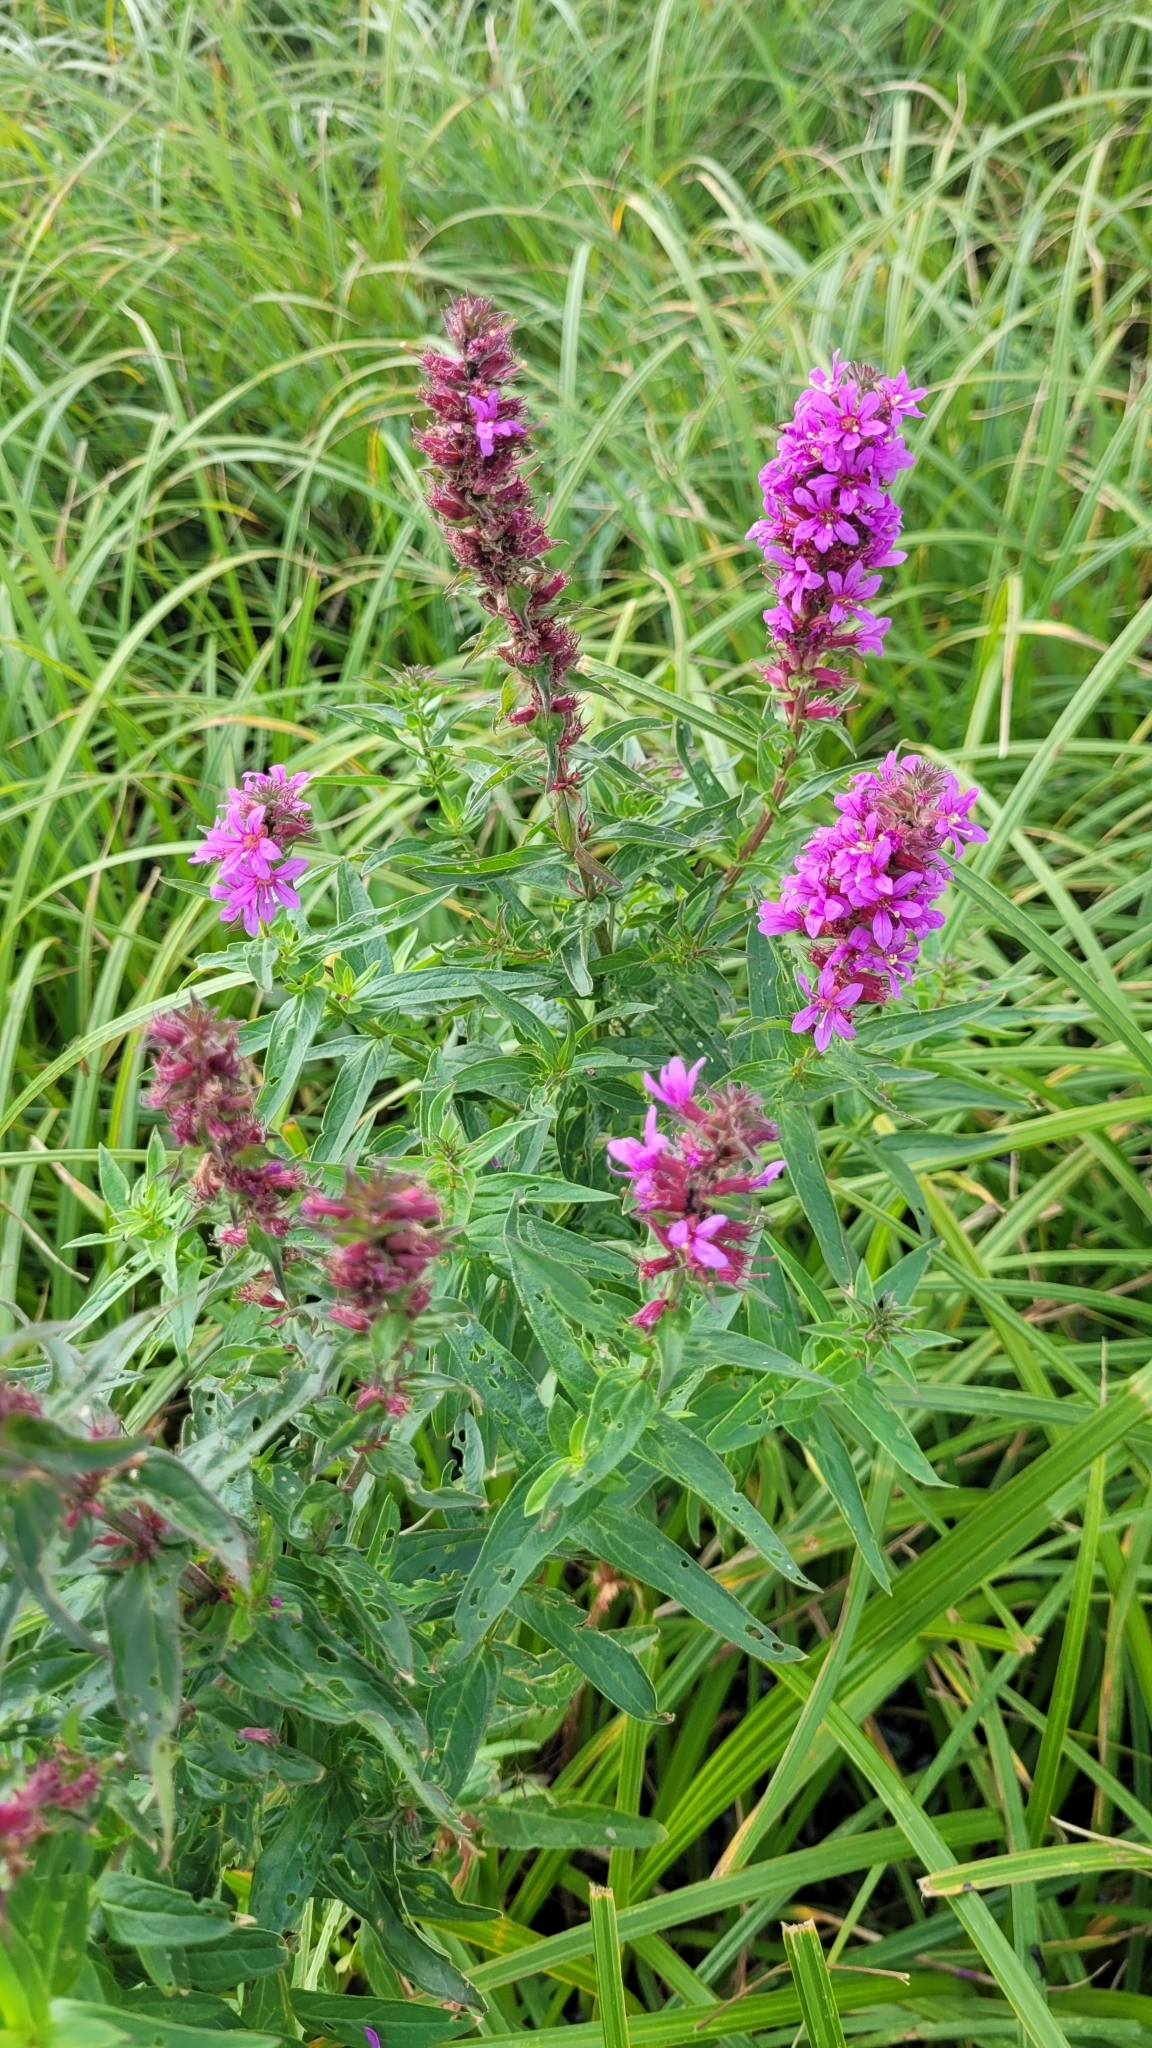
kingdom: Plantae
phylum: Tracheophyta
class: Magnoliopsida
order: Myrtales
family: Lythraceae
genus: Lythrum
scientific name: Lythrum salicaria
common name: Purple loosestrife
